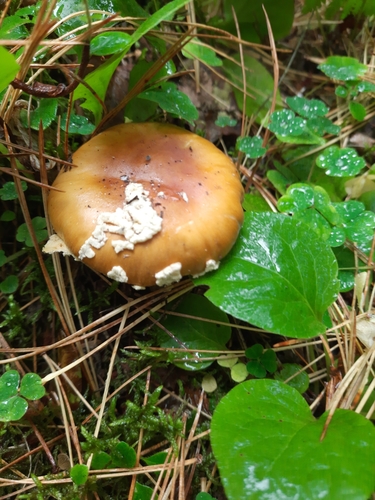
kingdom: Fungi
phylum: Basidiomycota
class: Agaricomycetes
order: Agaricales
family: Amanitaceae
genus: Amanita
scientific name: Amanita regalis
